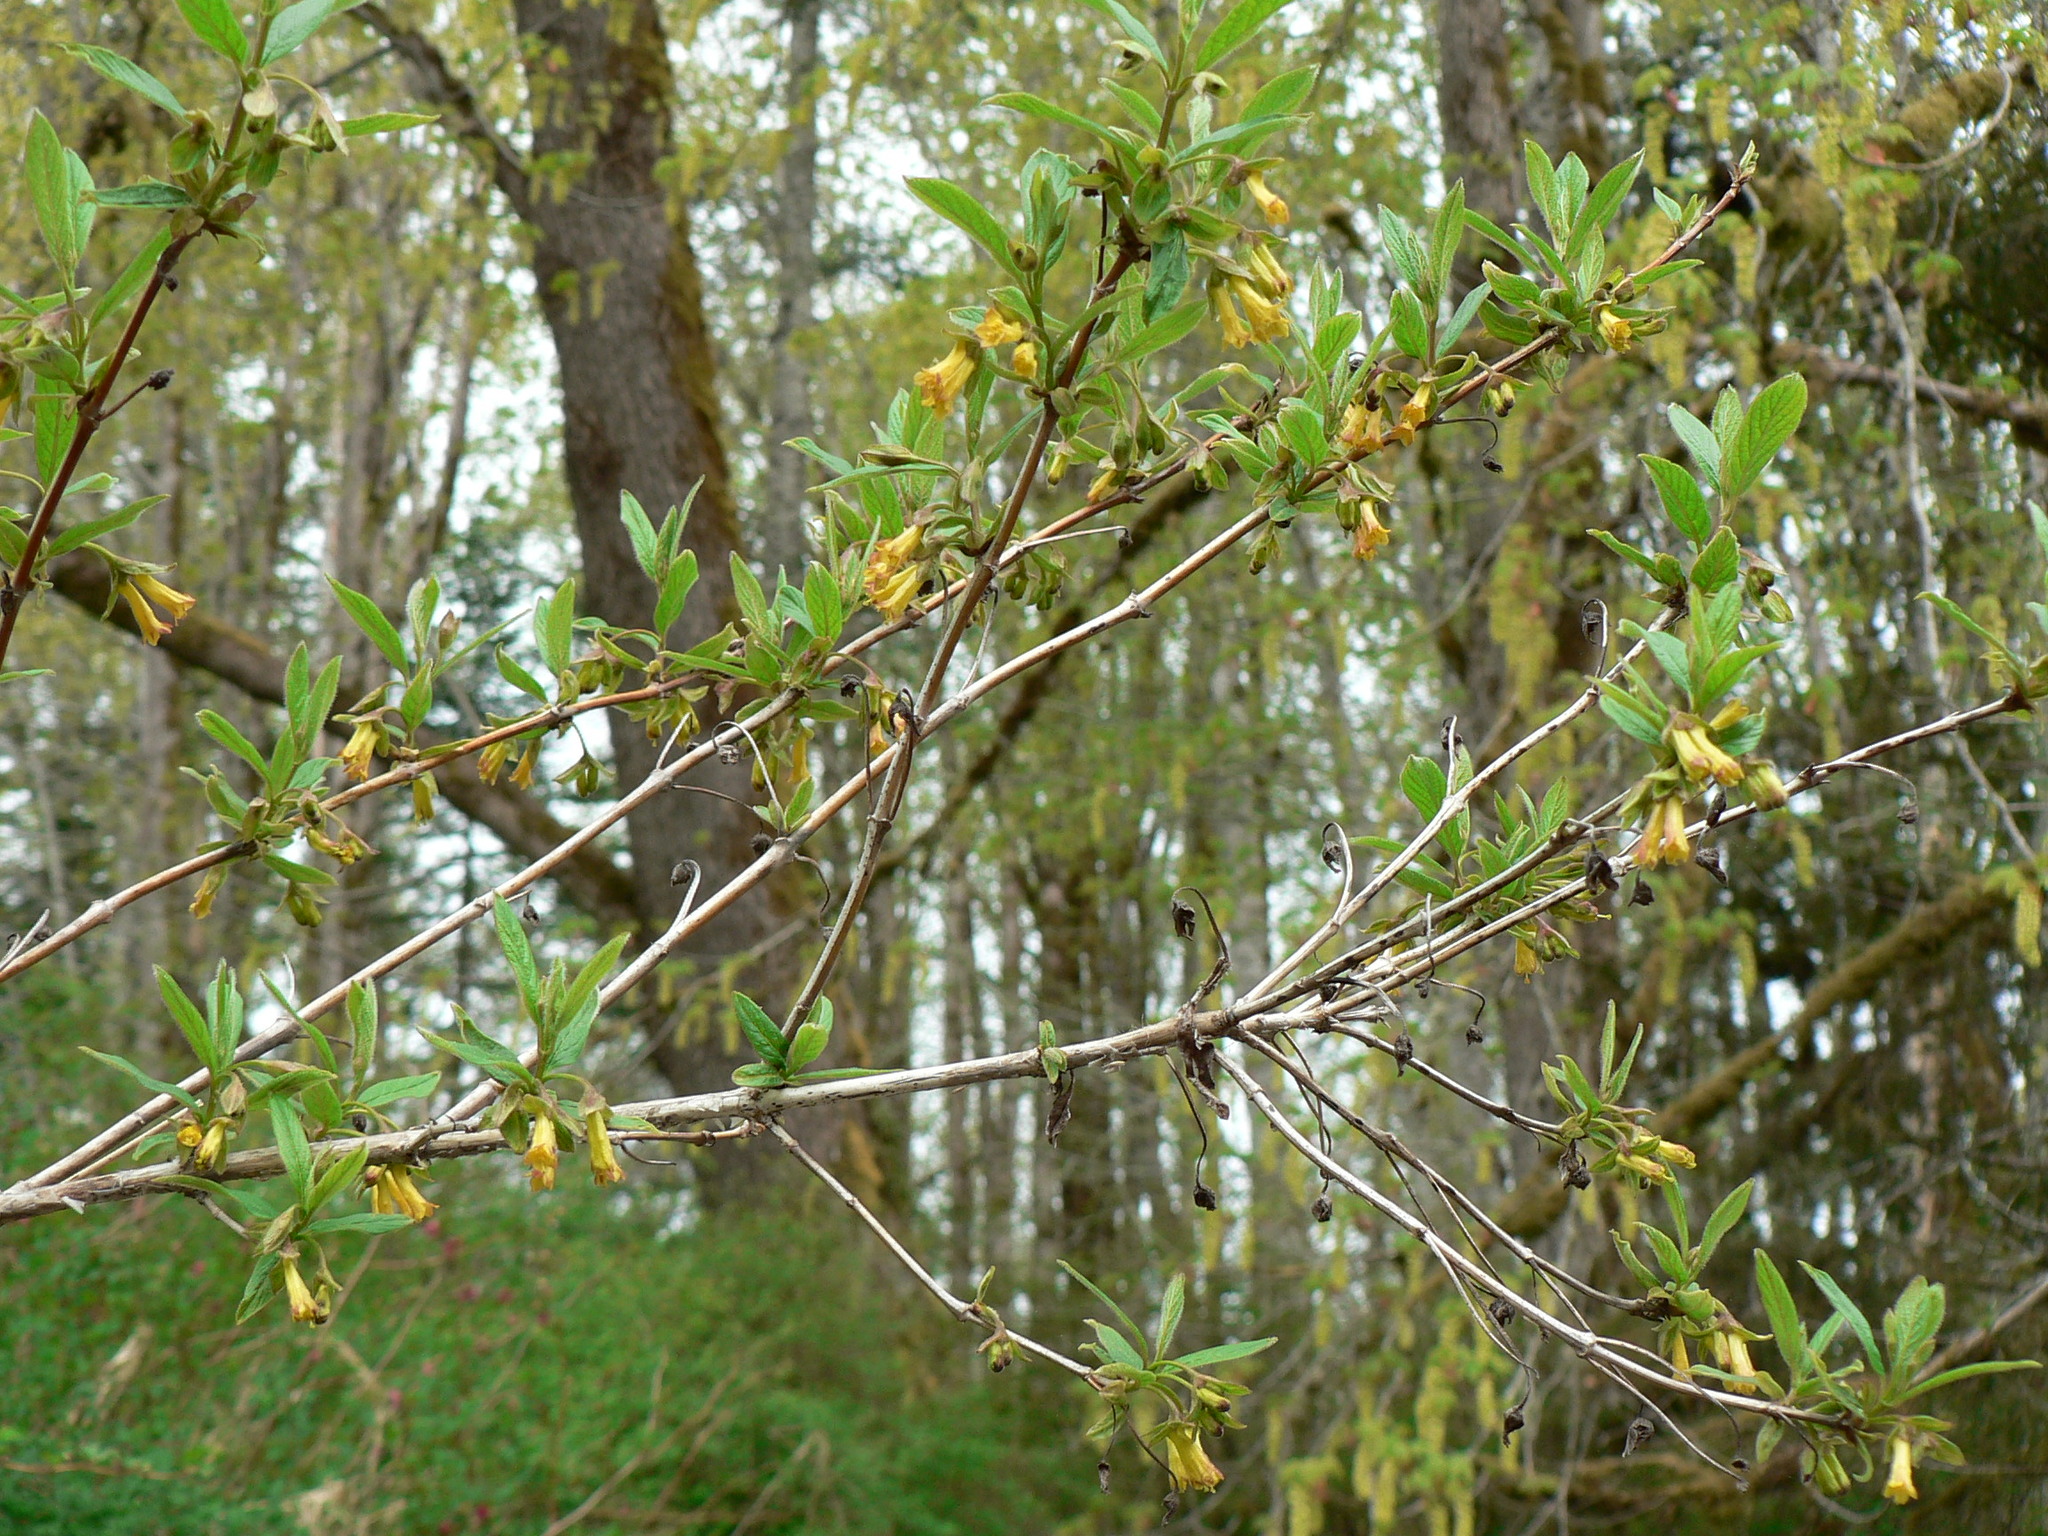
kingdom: Plantae
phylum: Tracheophyta
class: Magnoliopsida
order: Dipsacales
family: Caprifoliaceae
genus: Lonicera
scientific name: Lonicera involucrata
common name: Californian honeysuckle
